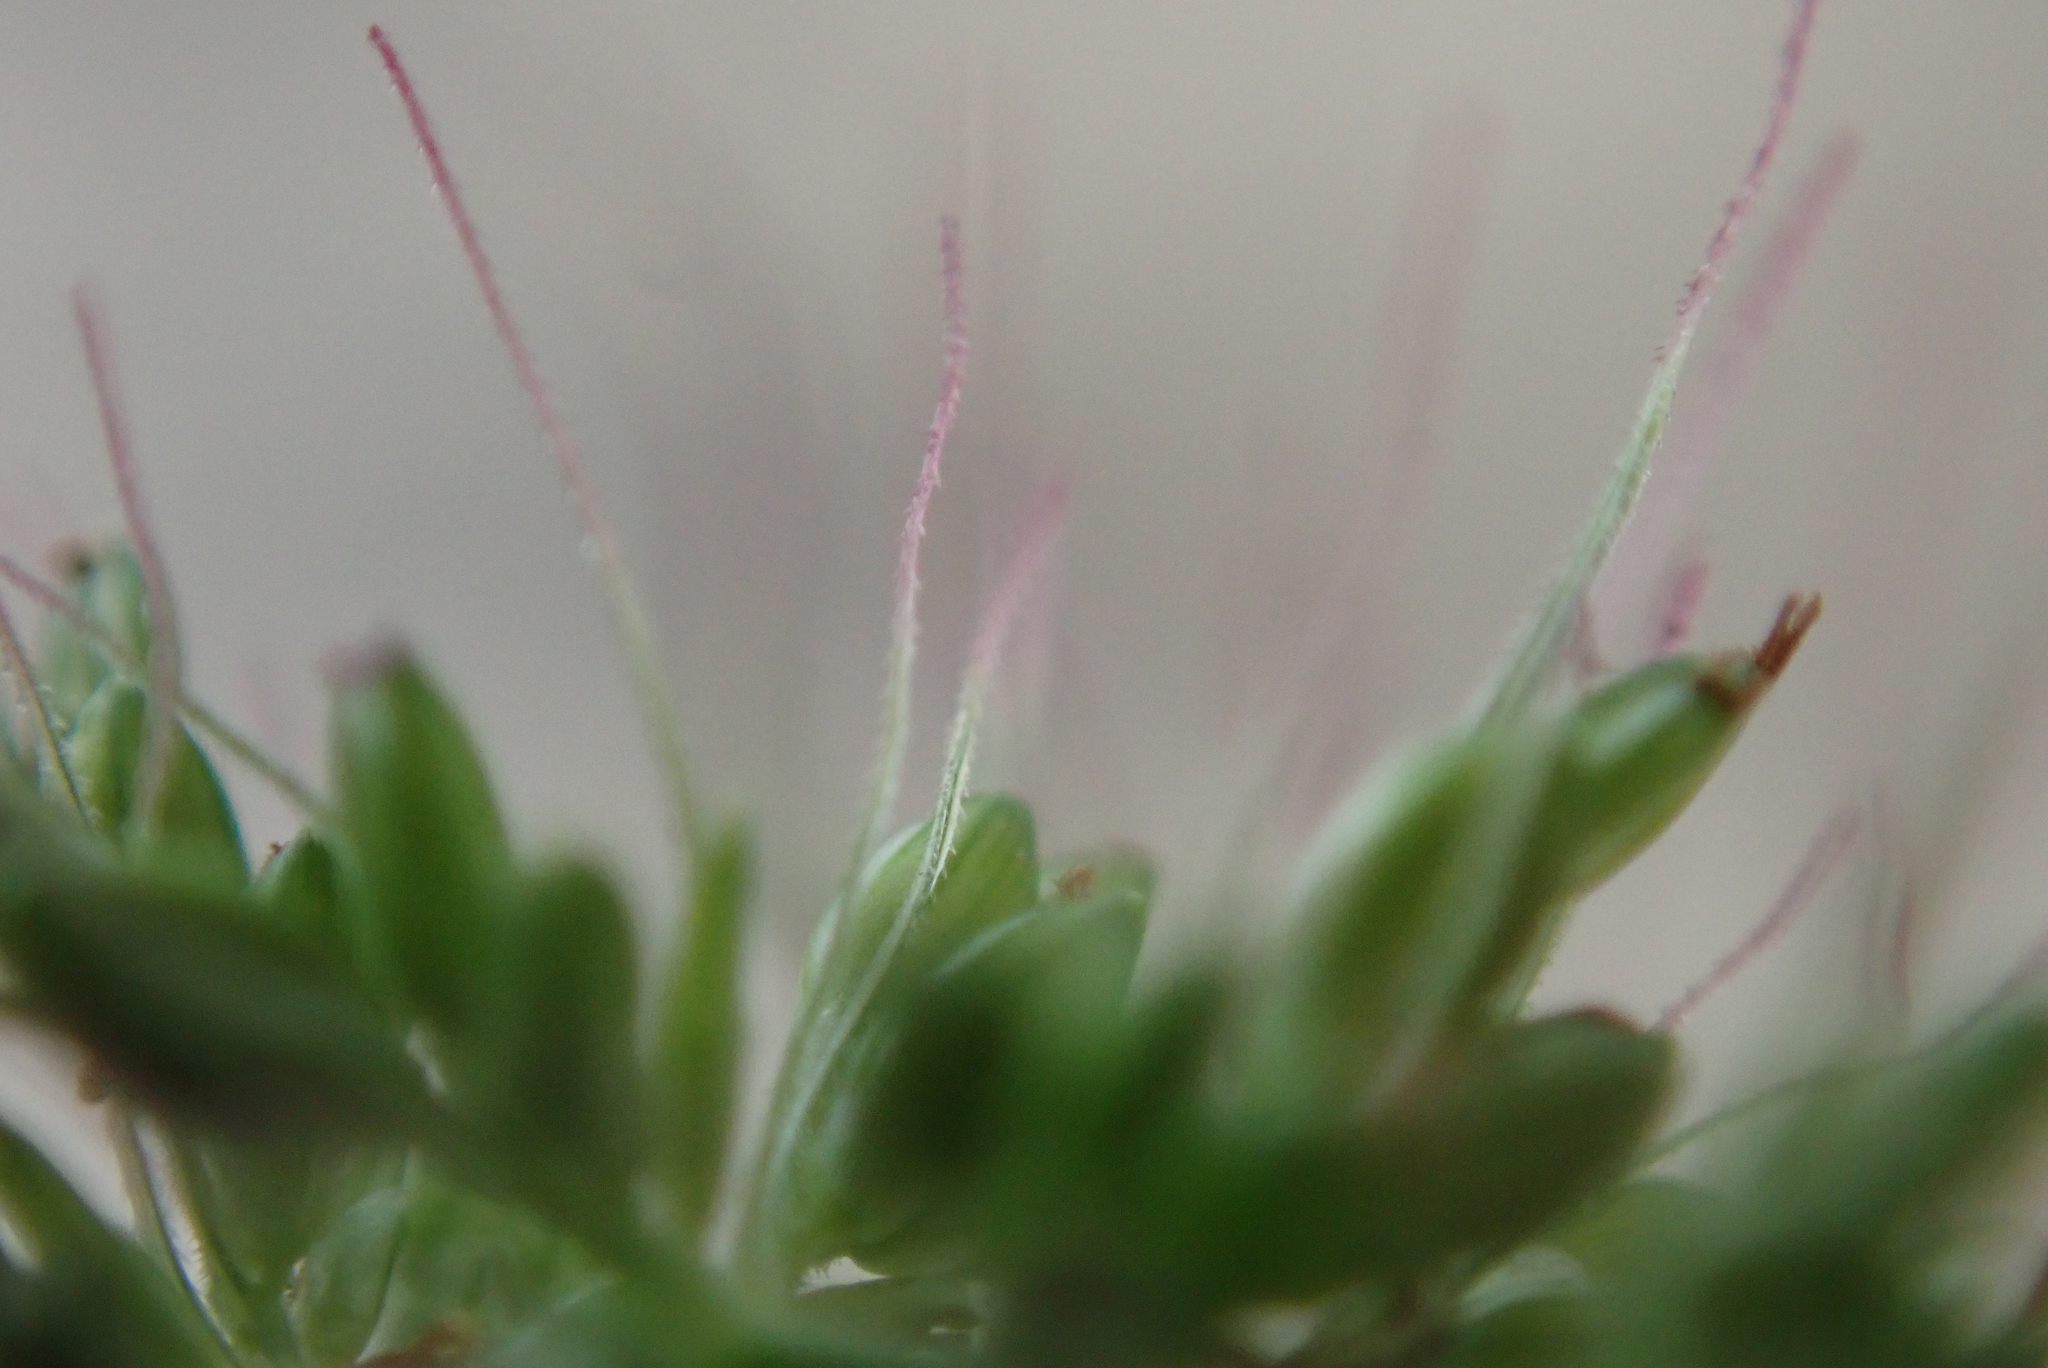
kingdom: Plantae
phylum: Tracheophyta
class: Liliopsida
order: Poales
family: Poaceae
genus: Setaria
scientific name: Setaria verticillata
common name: Hooked bristlegrass
